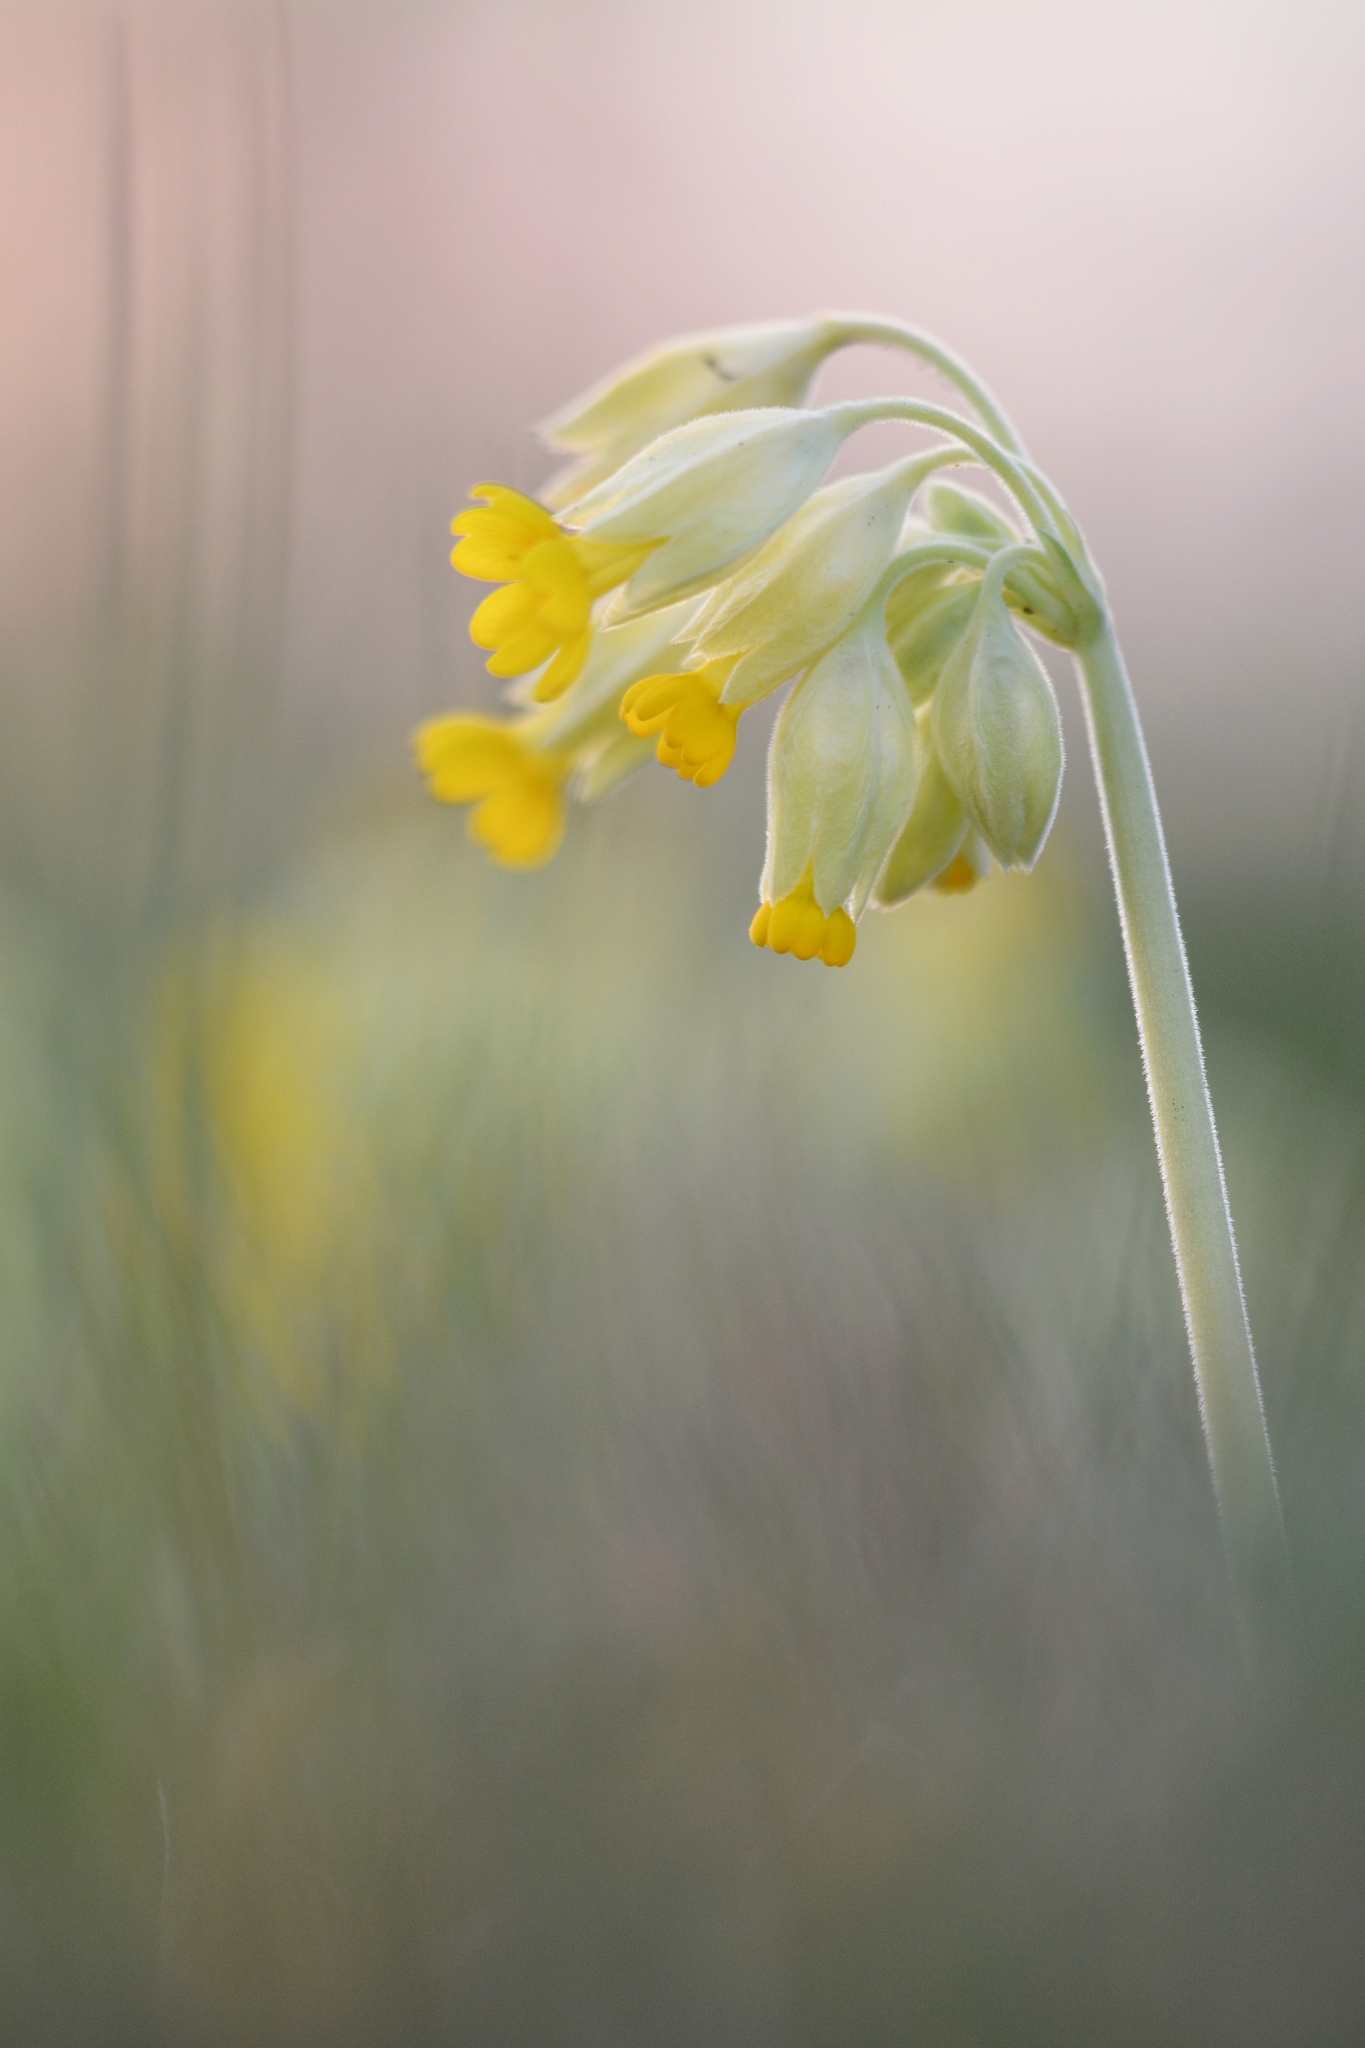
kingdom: Plantae
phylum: Tracheophyta
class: Magnoliopsida
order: Ericales
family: Primulaceae
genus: Primula
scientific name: Primula veris
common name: Cowslip
